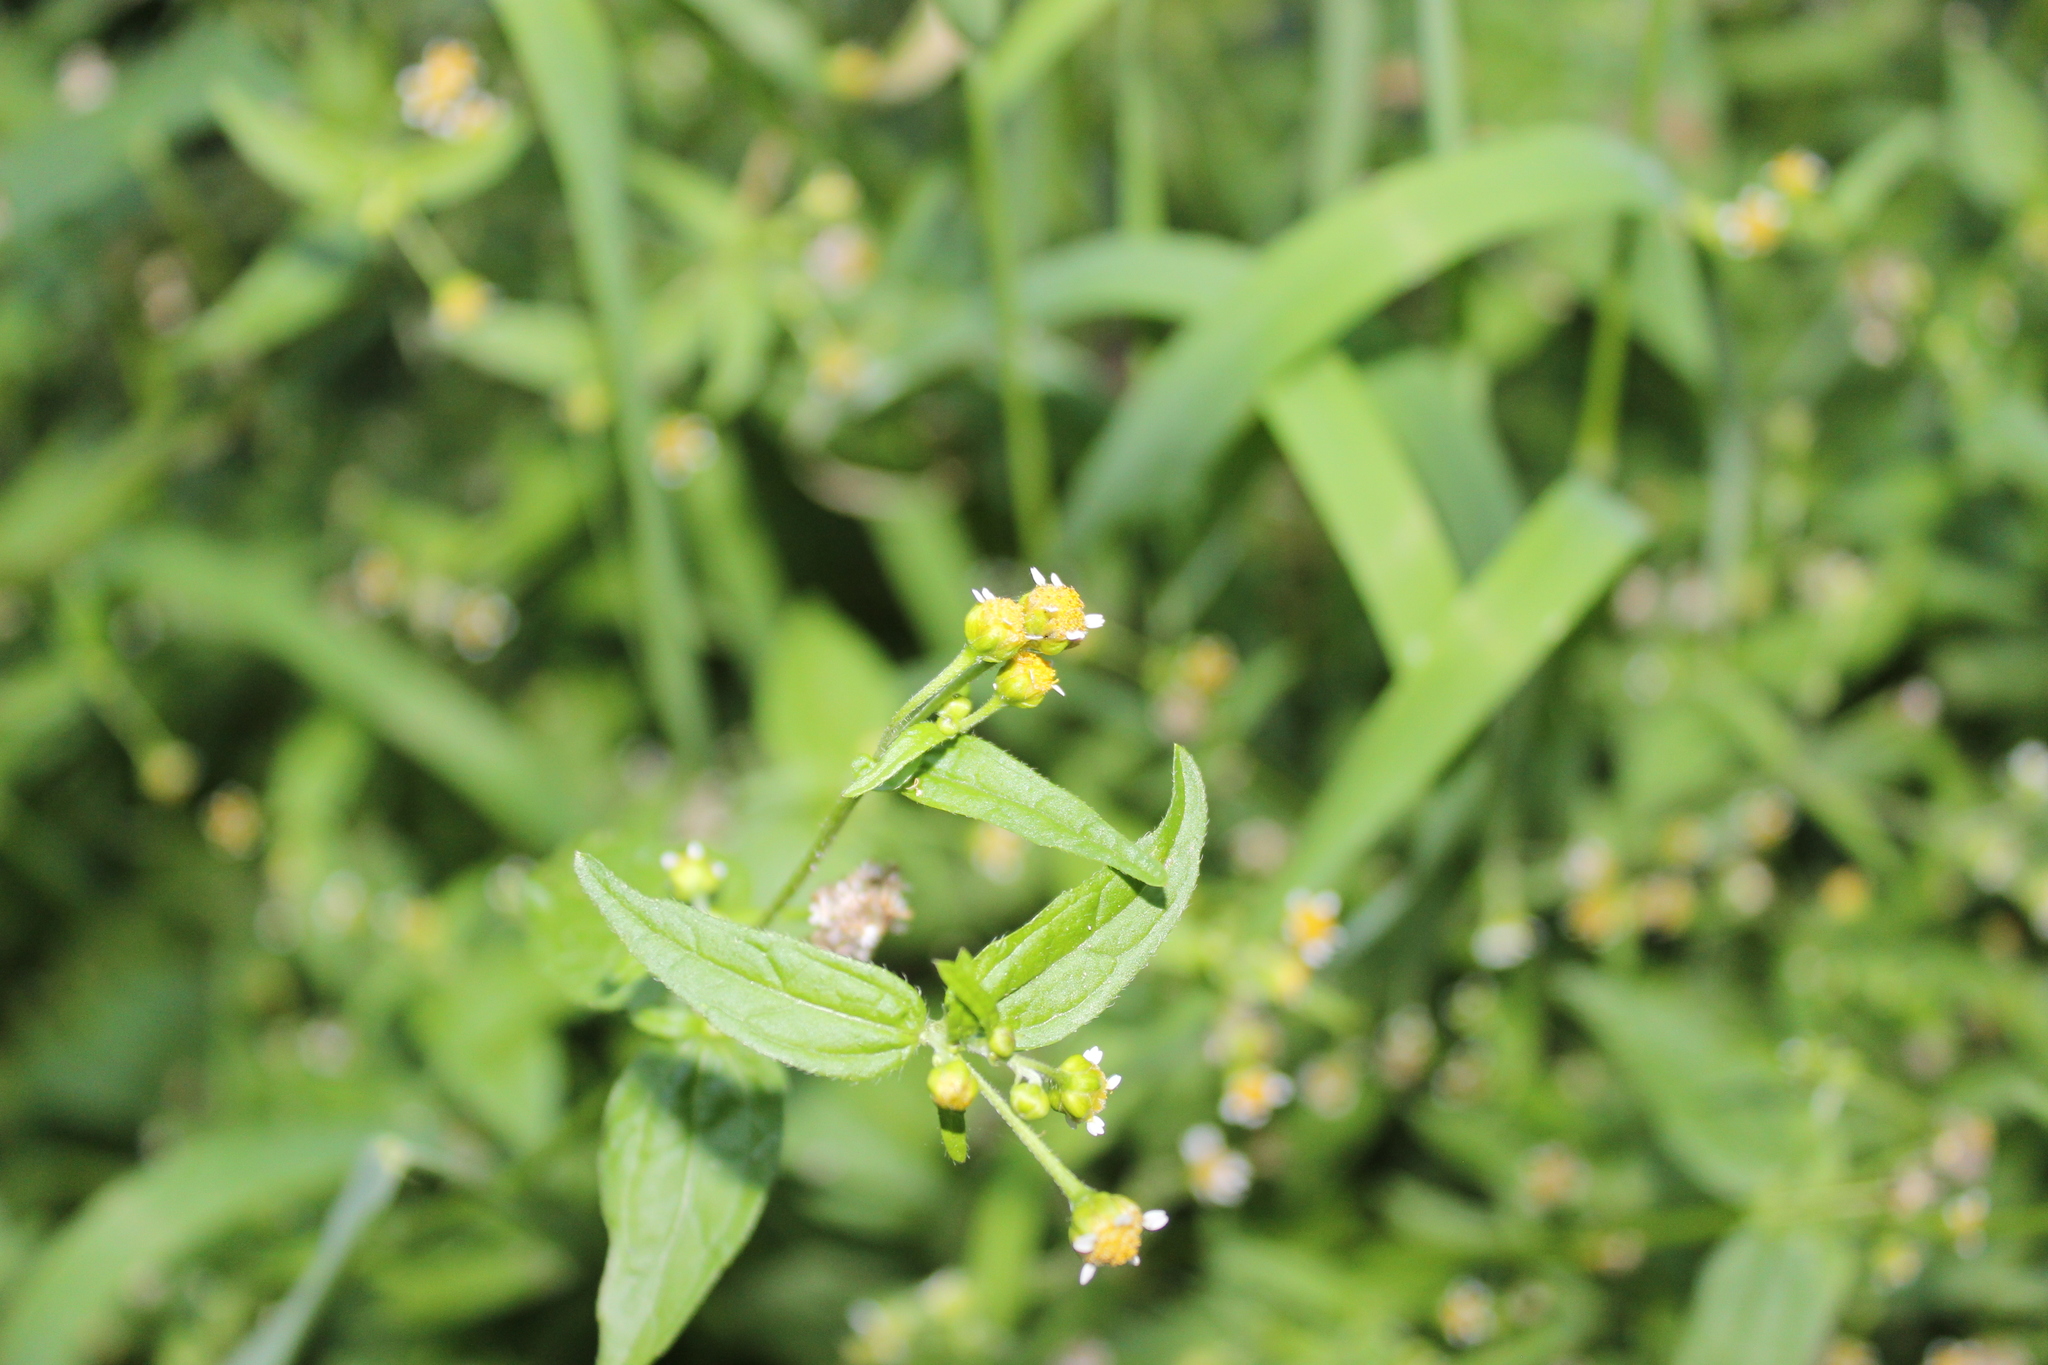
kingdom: Plantae
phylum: Tracheophyta
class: Magnoliopsida
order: Asterales
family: Asteraceae
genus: Galinsoga
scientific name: Galinsoga parviflora
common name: Gallant soldier
